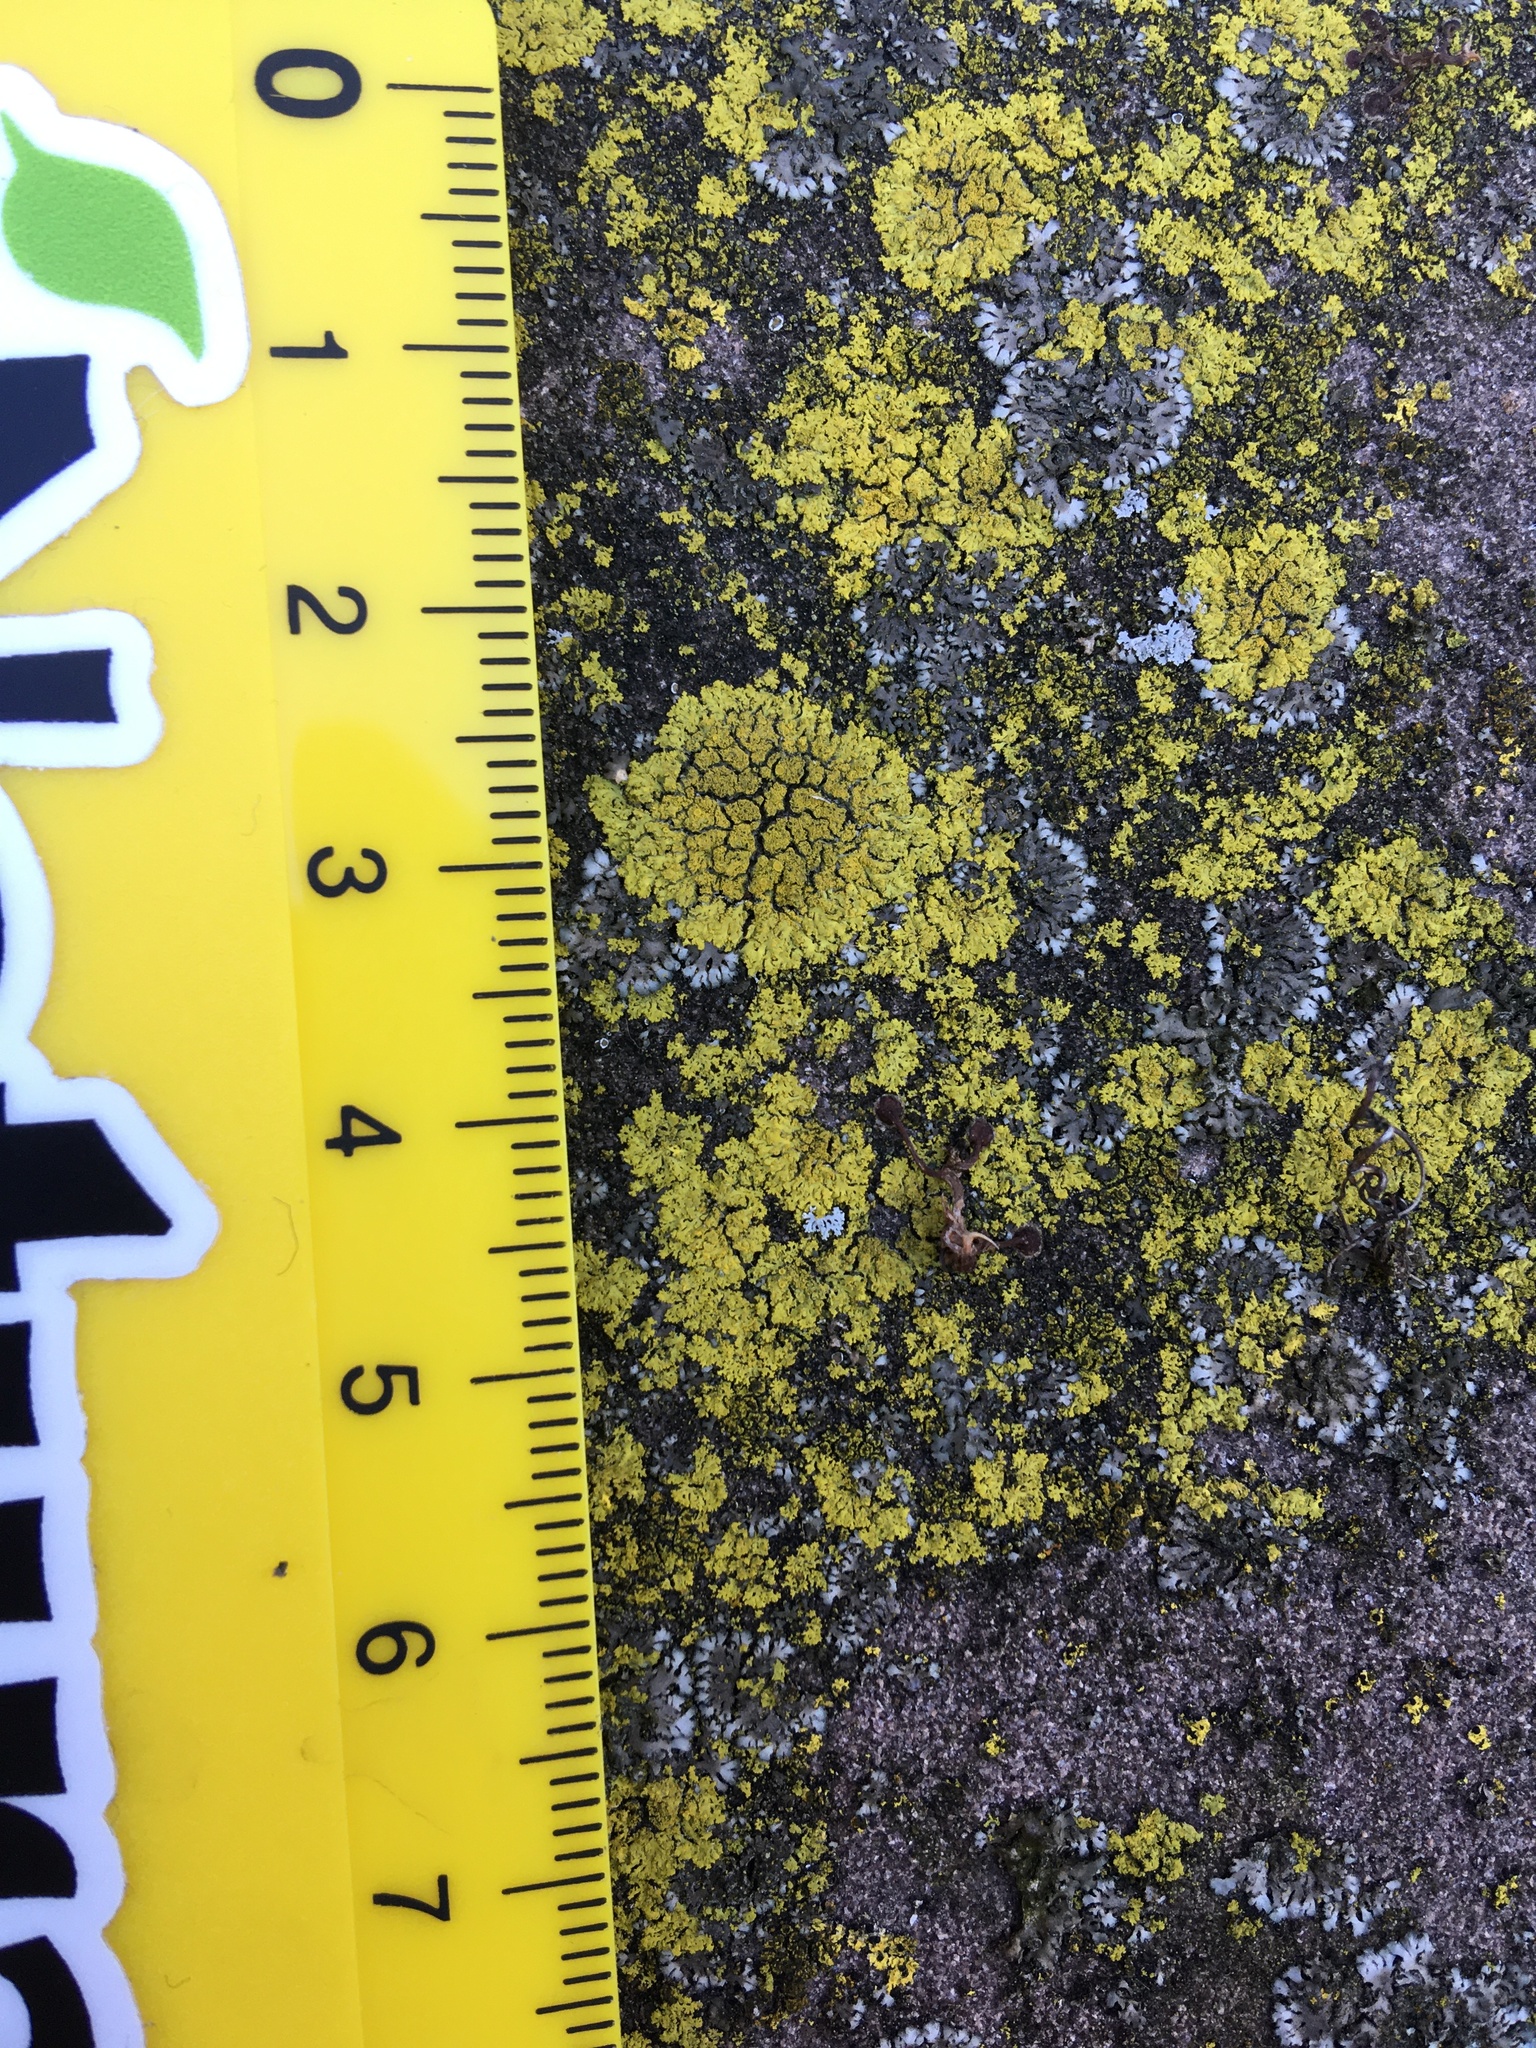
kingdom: Fungi
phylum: Ascomycota
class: Candelariomycetes
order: Candelariales
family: Candelariaceae
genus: Candelaria
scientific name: Candelaria concolor
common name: Candleflame lichen
